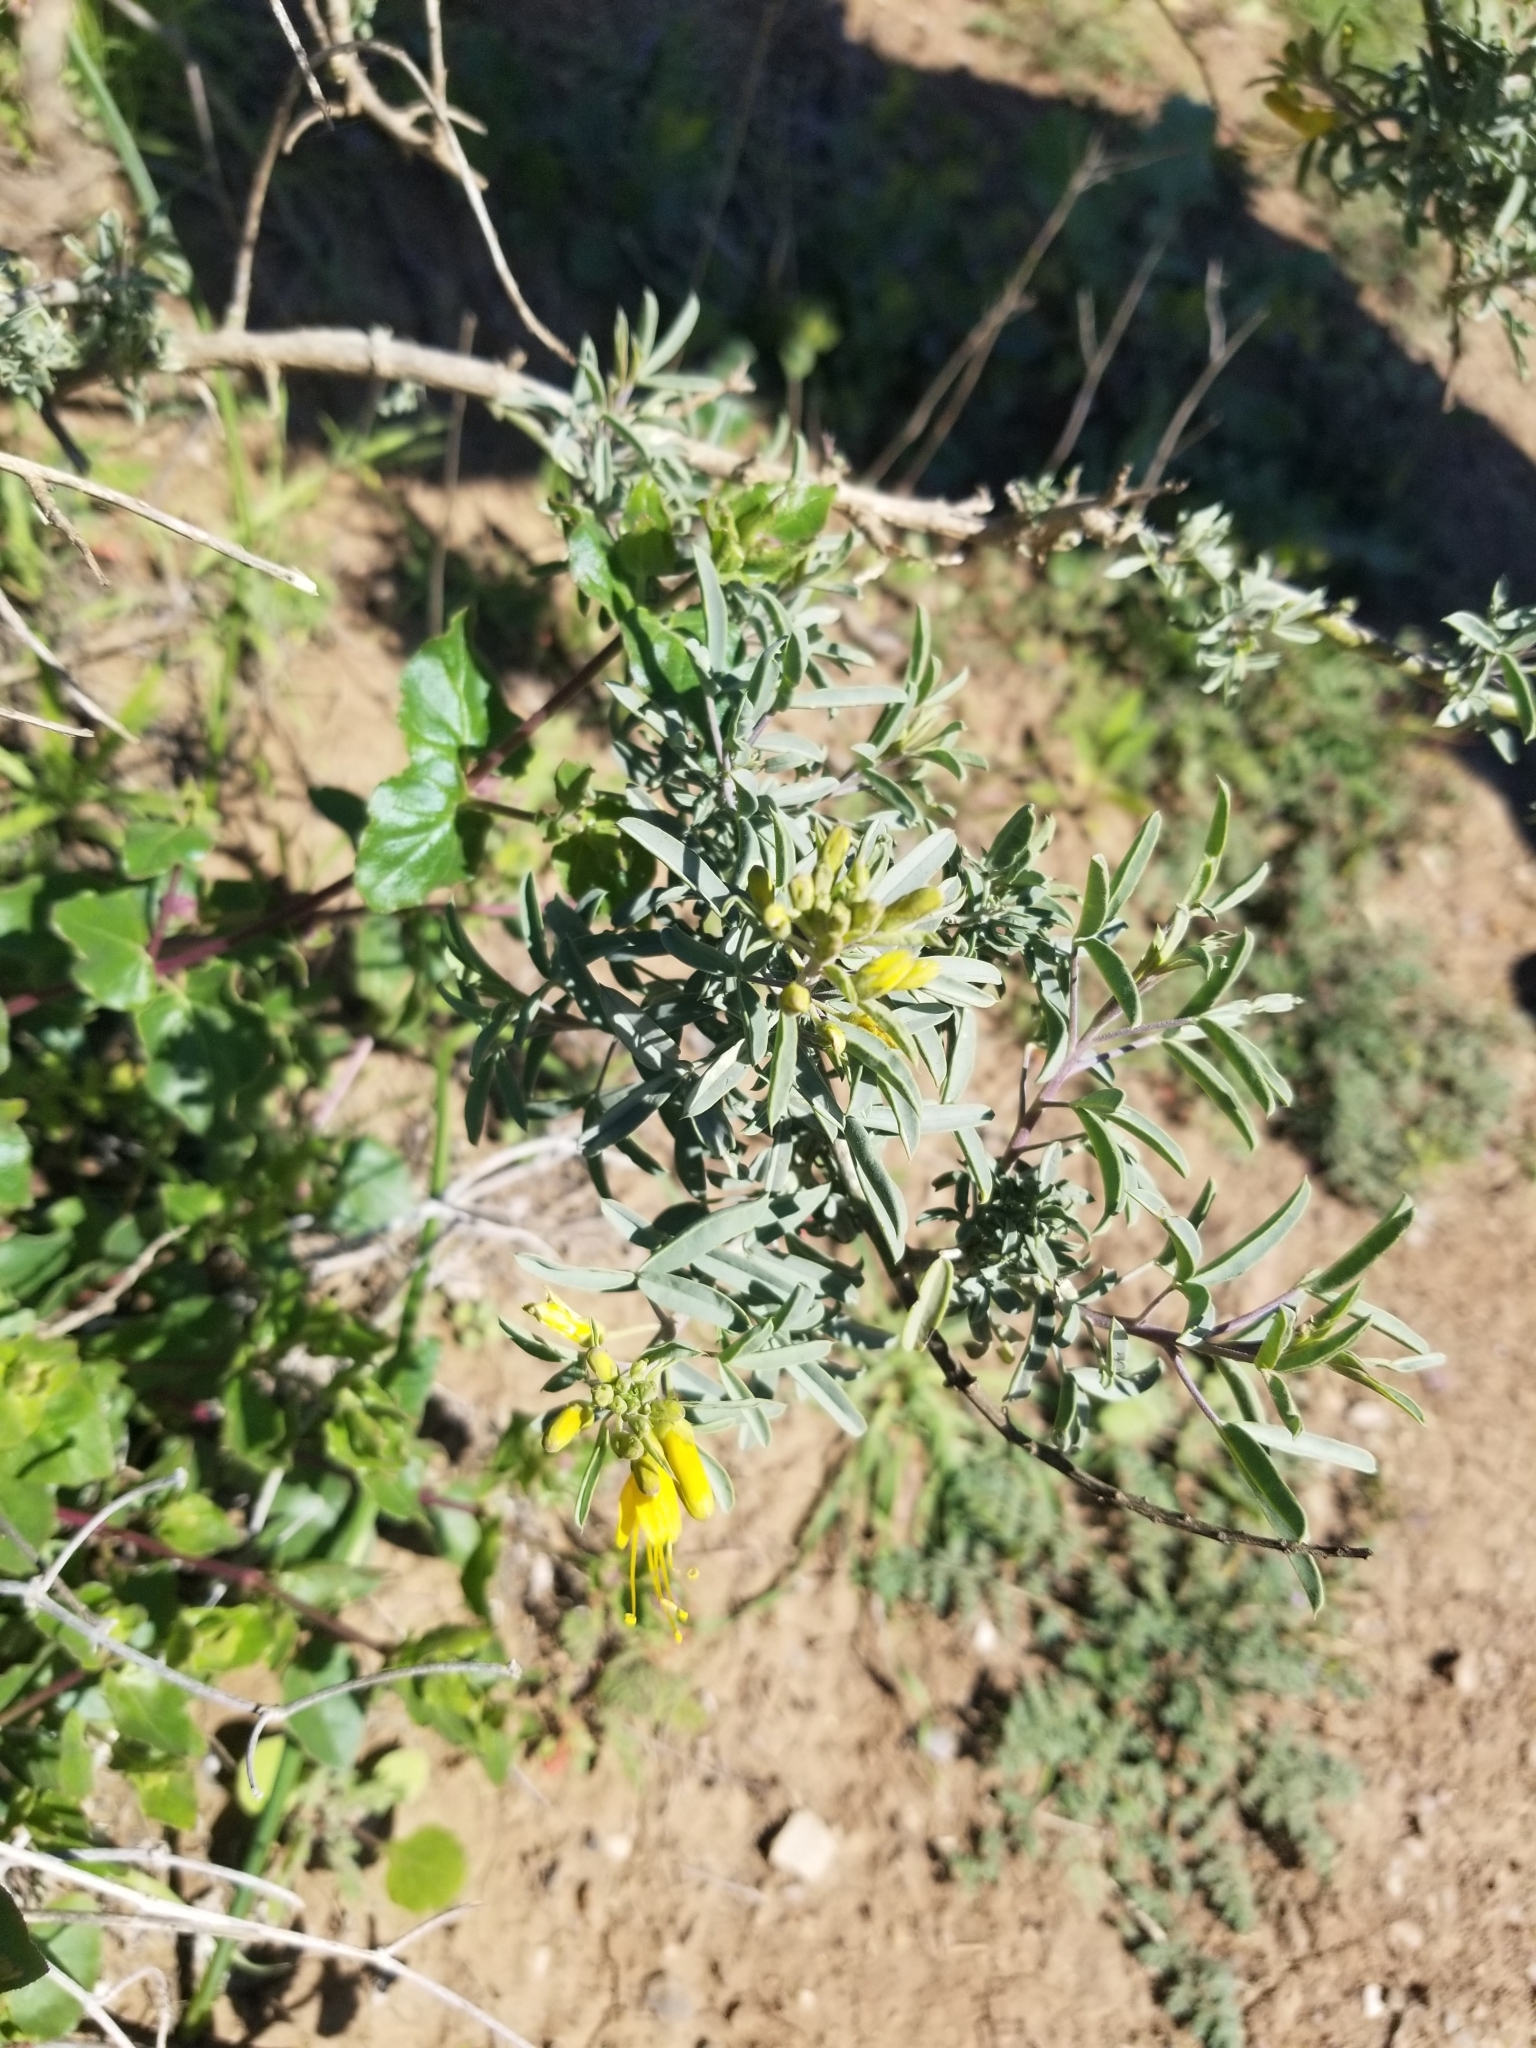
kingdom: Plantae
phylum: Tracheophyta
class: Magnoliopsida
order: Brassicales
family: Cleomaceae
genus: Cleomella
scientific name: Cleomella arborea
